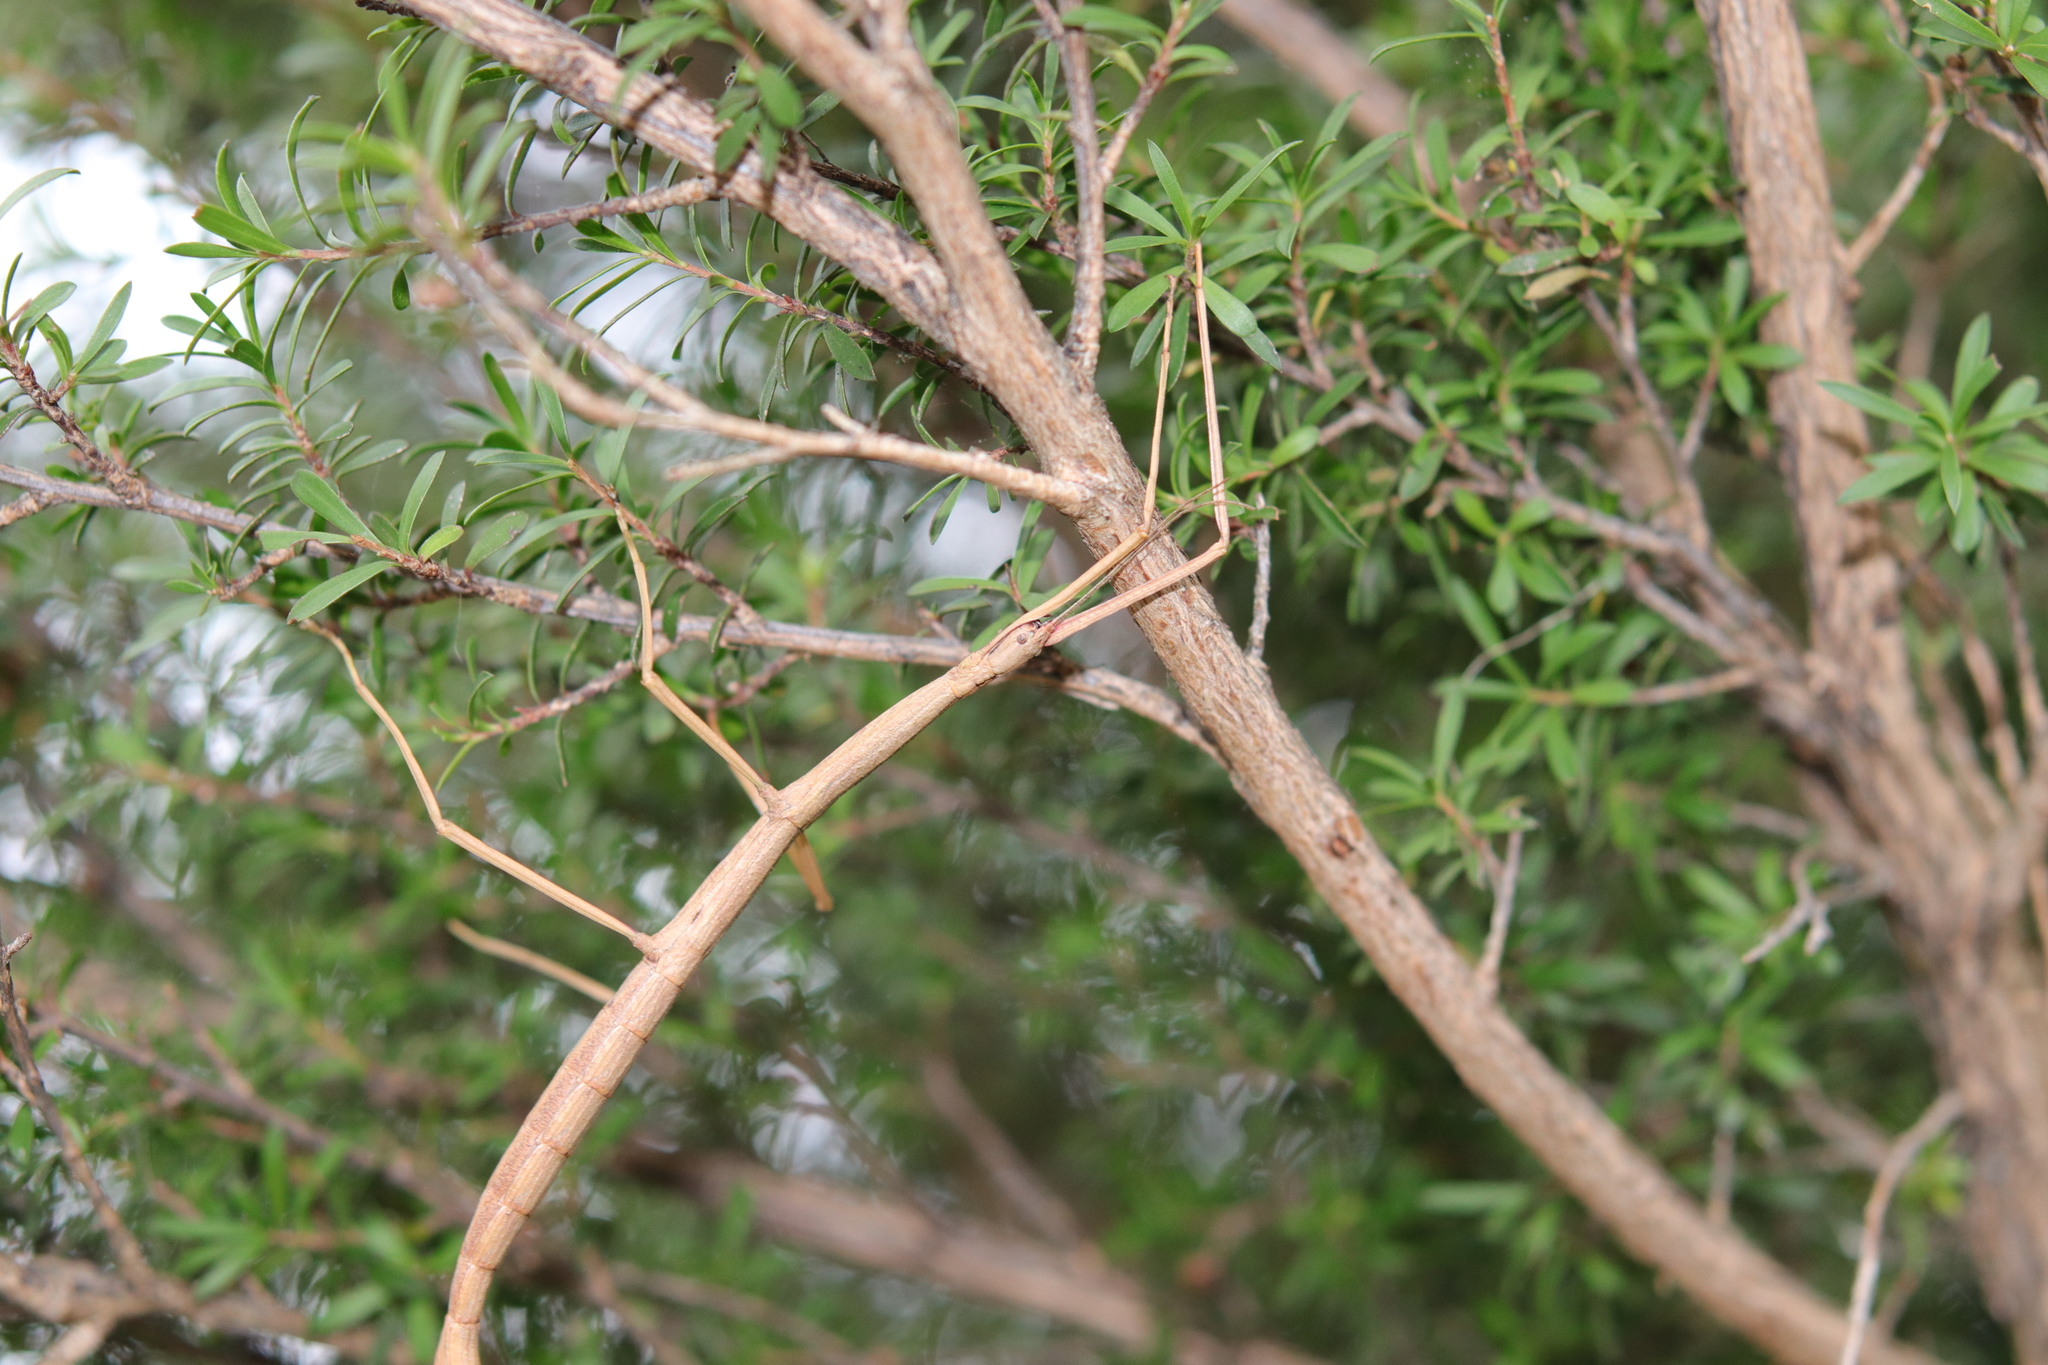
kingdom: Animalia
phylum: Arthropoda
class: Insecta
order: Phasmida
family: Phasmatidae
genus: Clitarchus
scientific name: Clitarchus hookeri
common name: Smooth stick insect
